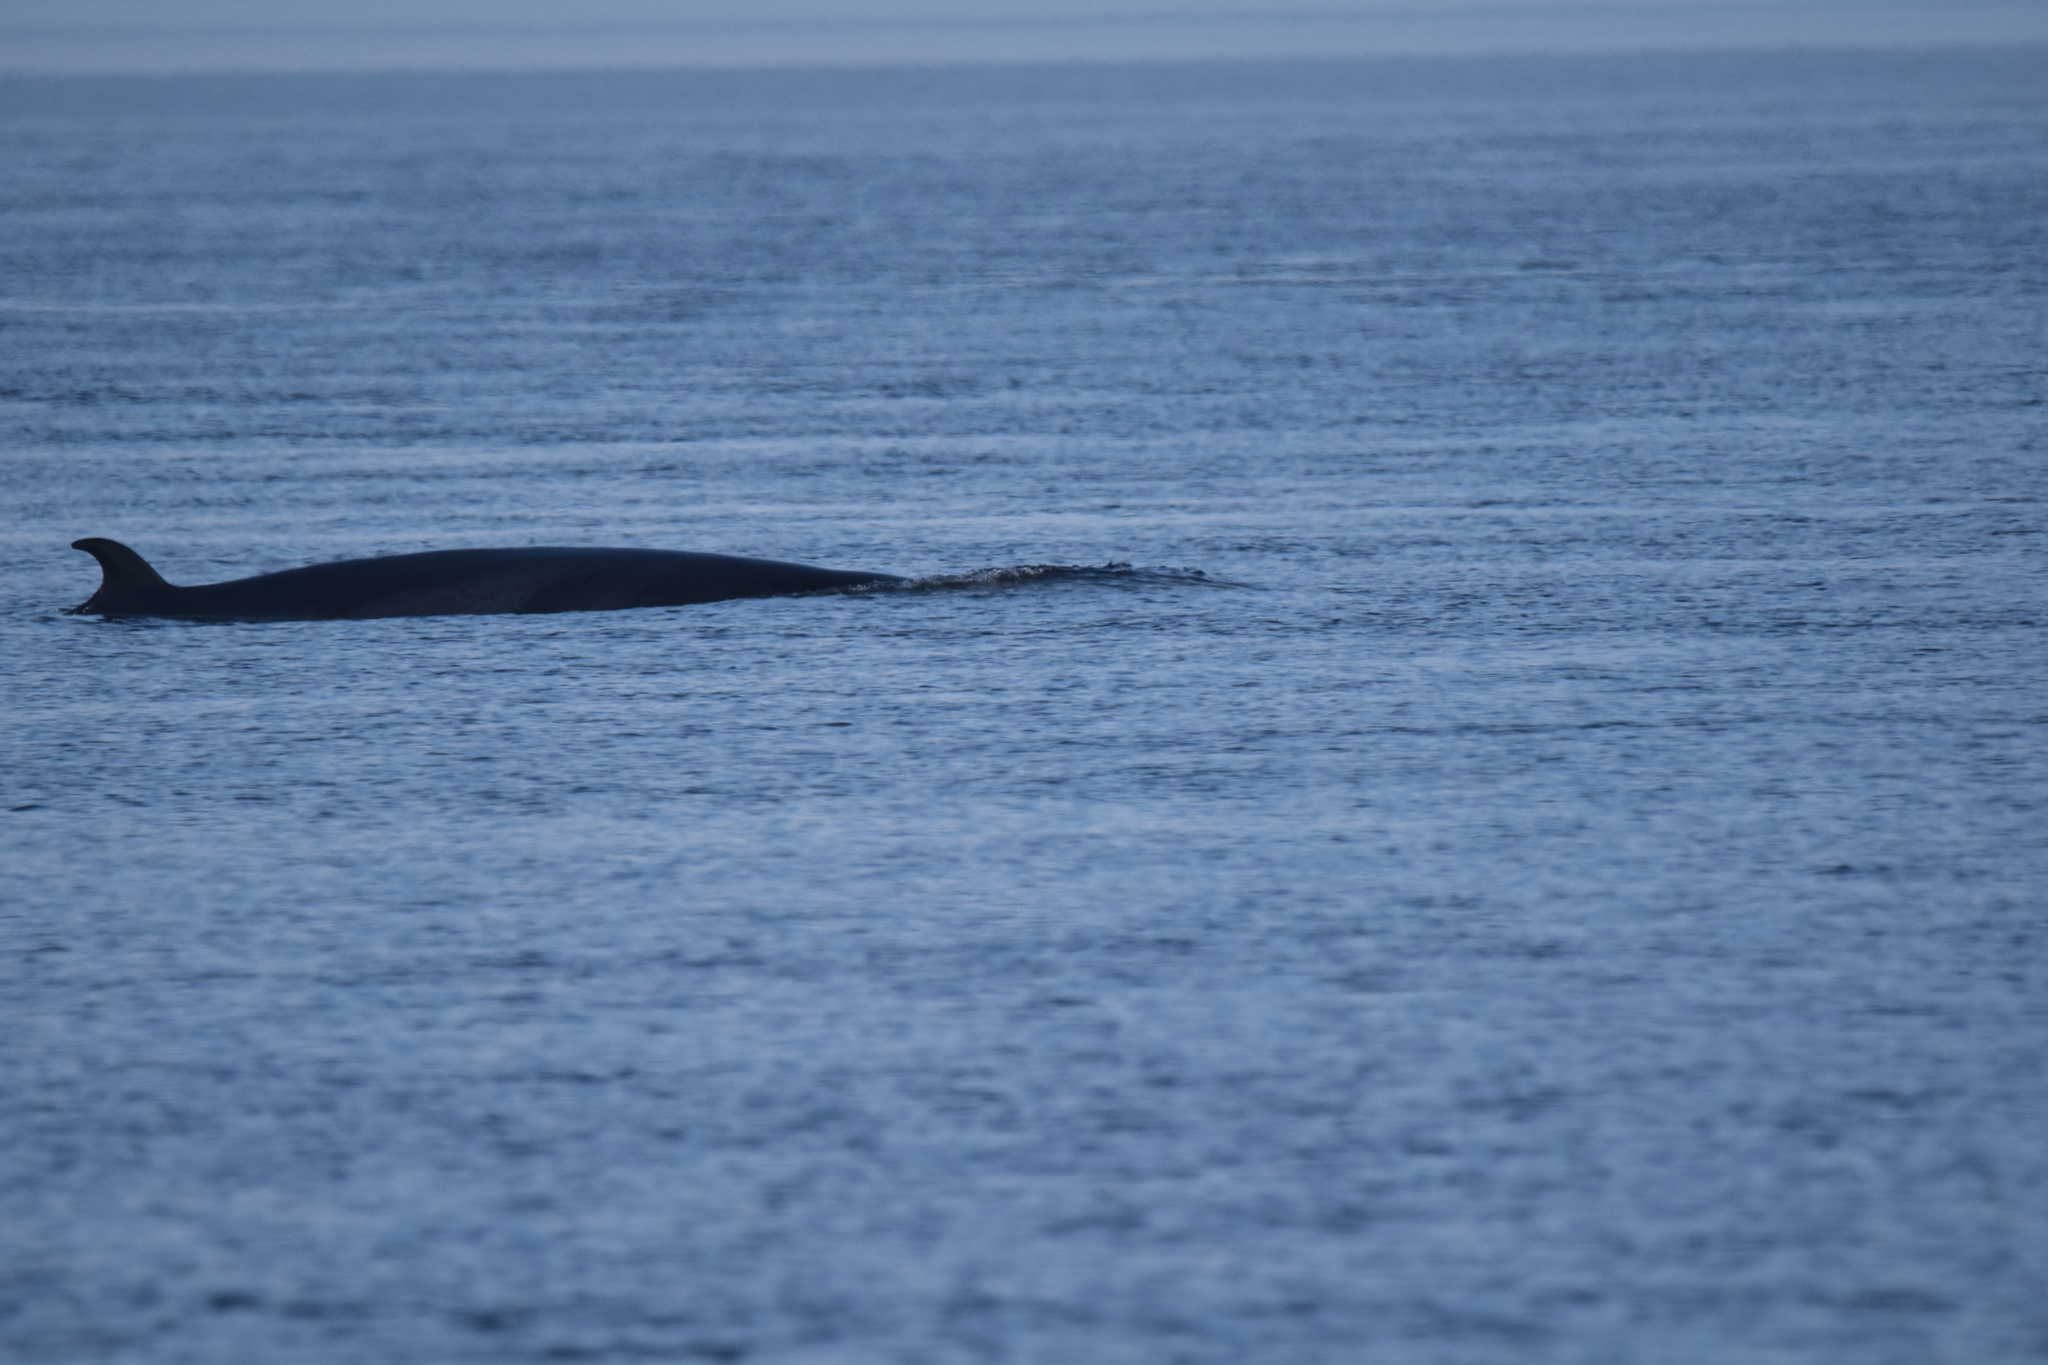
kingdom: Animalia
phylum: Chordata
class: Mammalia
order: Cetacea
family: Balaenopteridae
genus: Balaenoptera
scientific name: Balaenoptera acutorostrata
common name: Common minke whale
